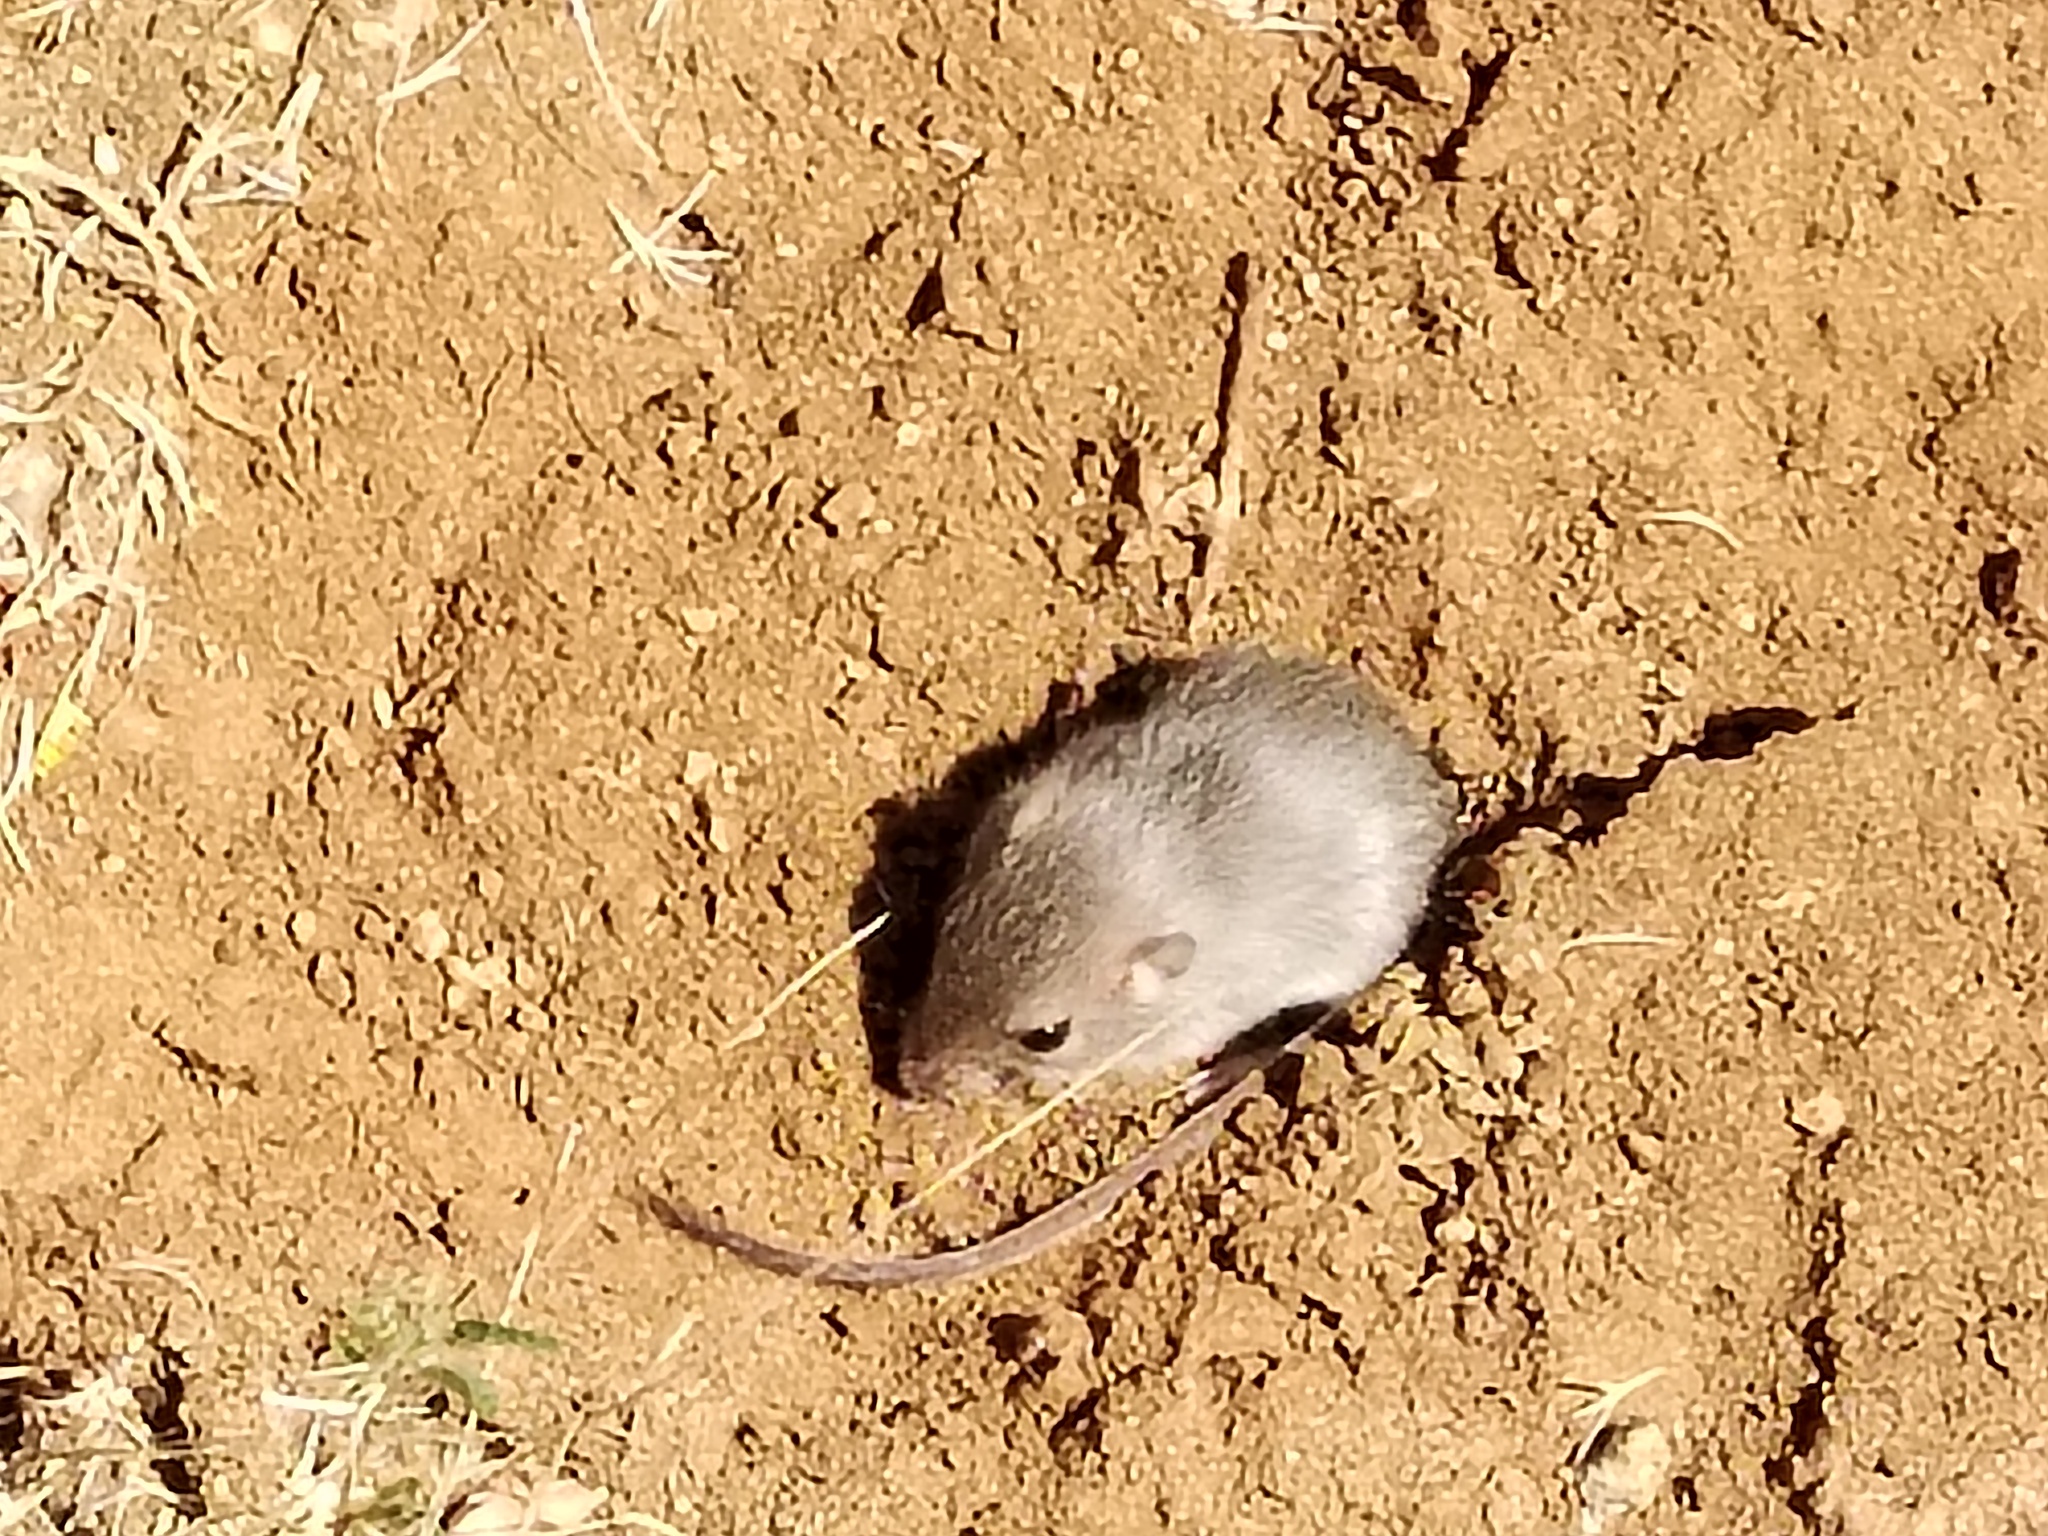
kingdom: Animalia
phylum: Chordata
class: Mammalia
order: Rodentia
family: Cricetidae
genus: Peromyscus
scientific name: Peromyscus eva
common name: Southern baja deermouse
